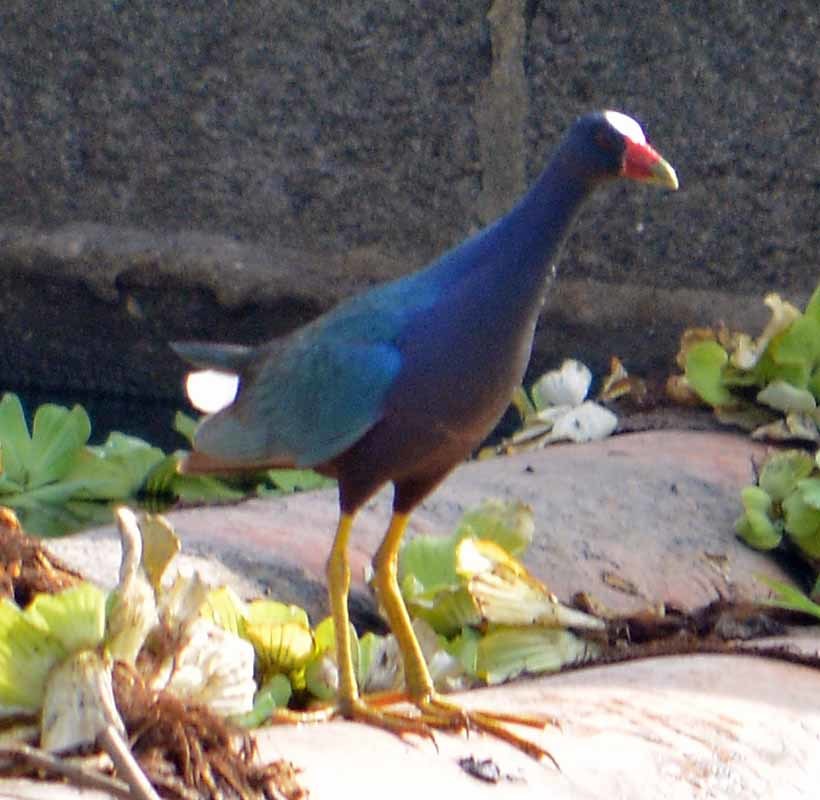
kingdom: Animalia
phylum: Chordata
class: Aves
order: Gruiformes
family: Rallidae
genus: Porphyrio
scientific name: Porphyrio martinica
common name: Purple gallinule
